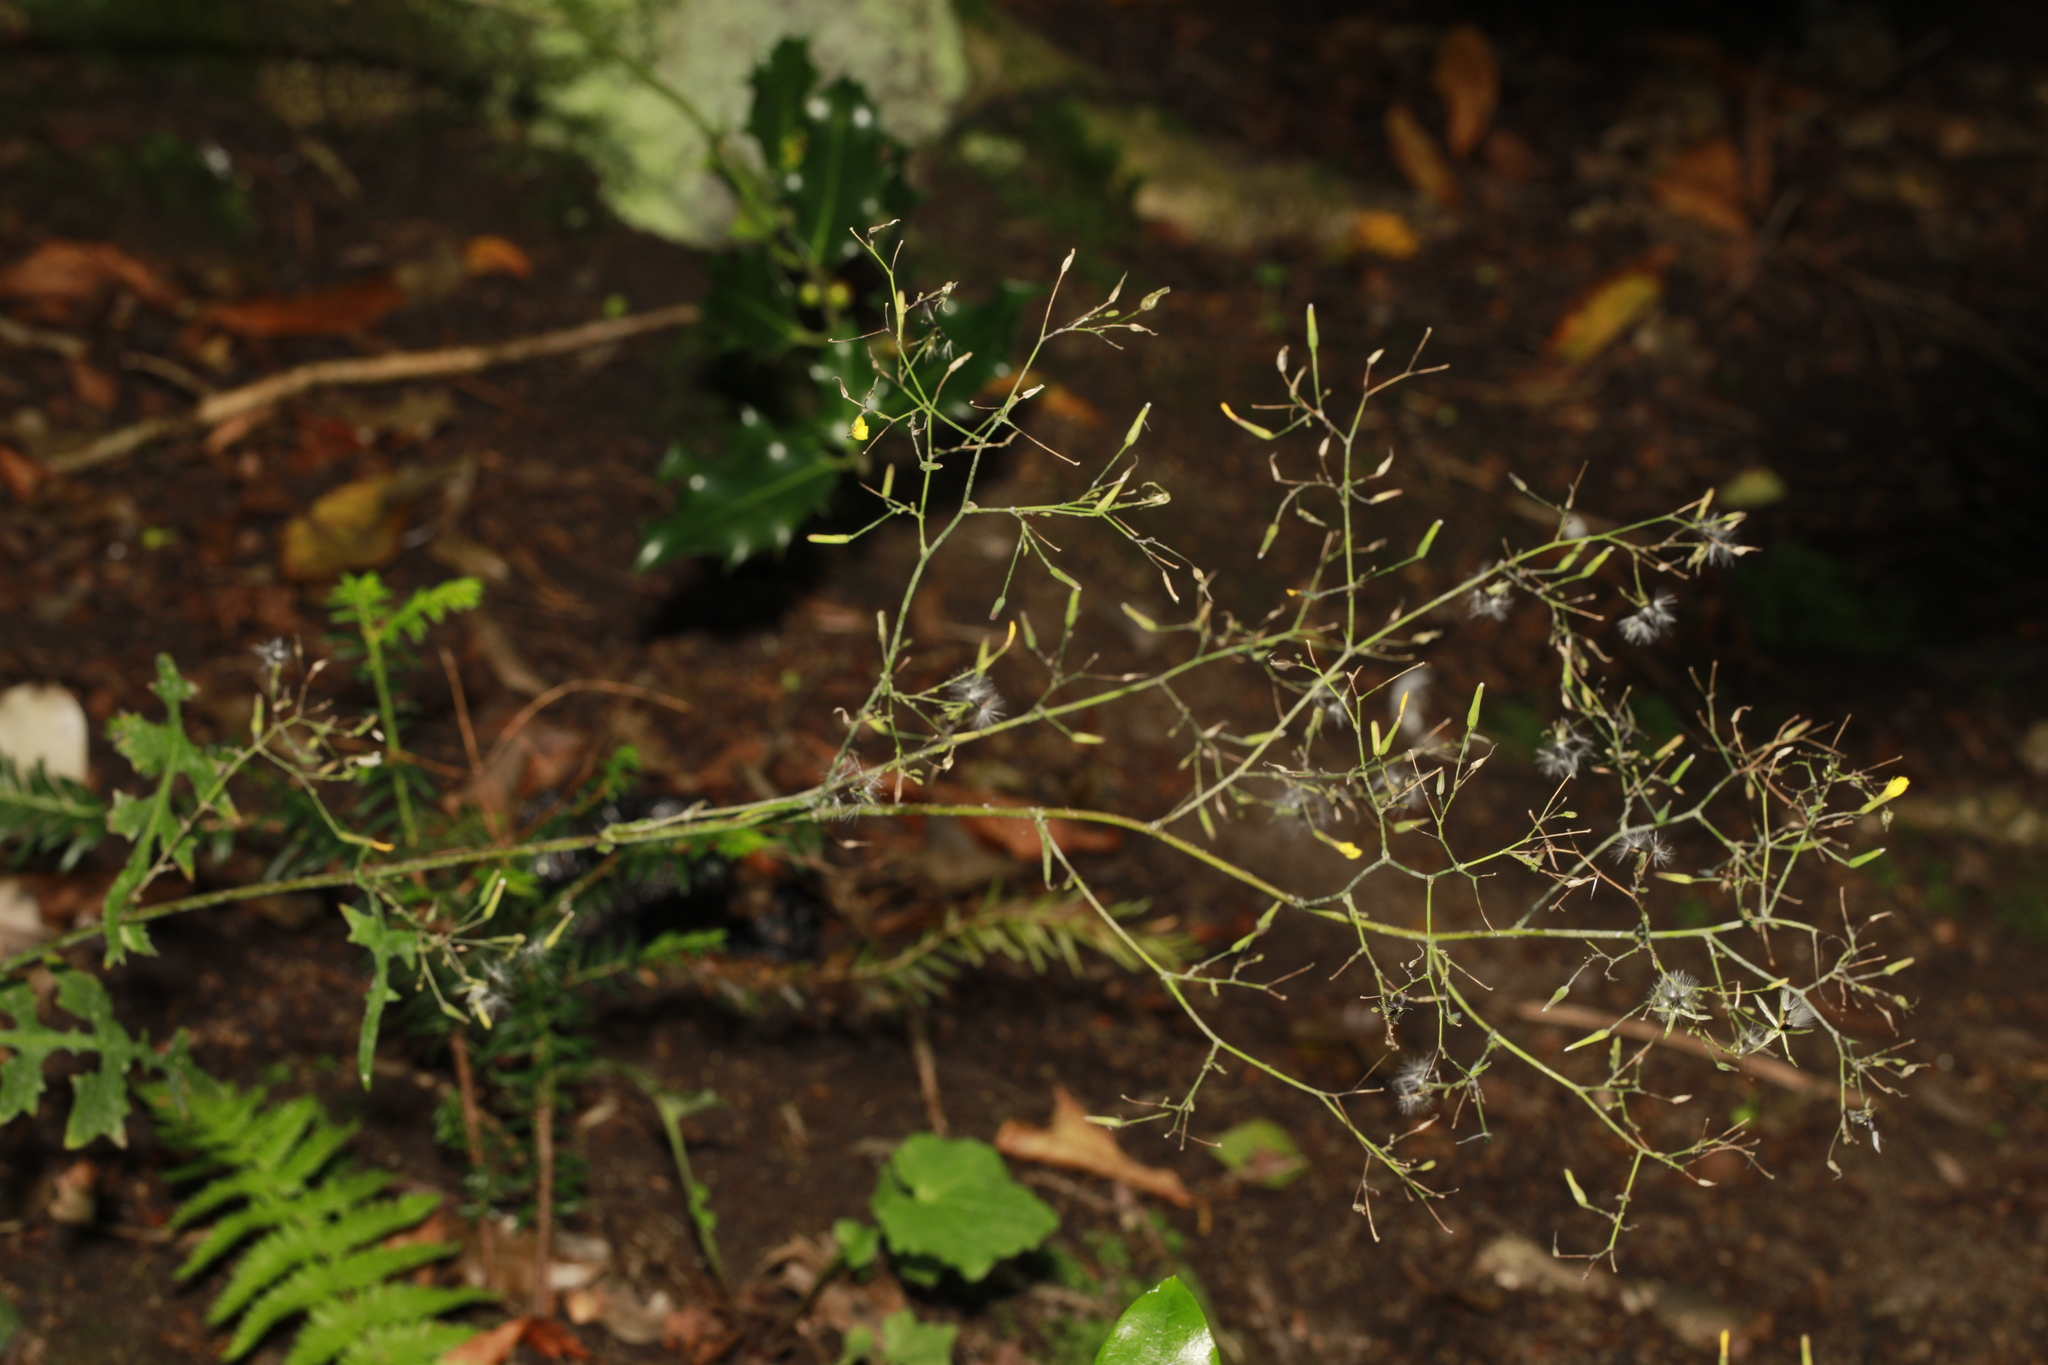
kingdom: Plantae
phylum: Tracheophyta
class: Magnoliopsida
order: Asterales
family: Asteraceae
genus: Mycelis
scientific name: Mycelis muralis
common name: Wall lettuce
